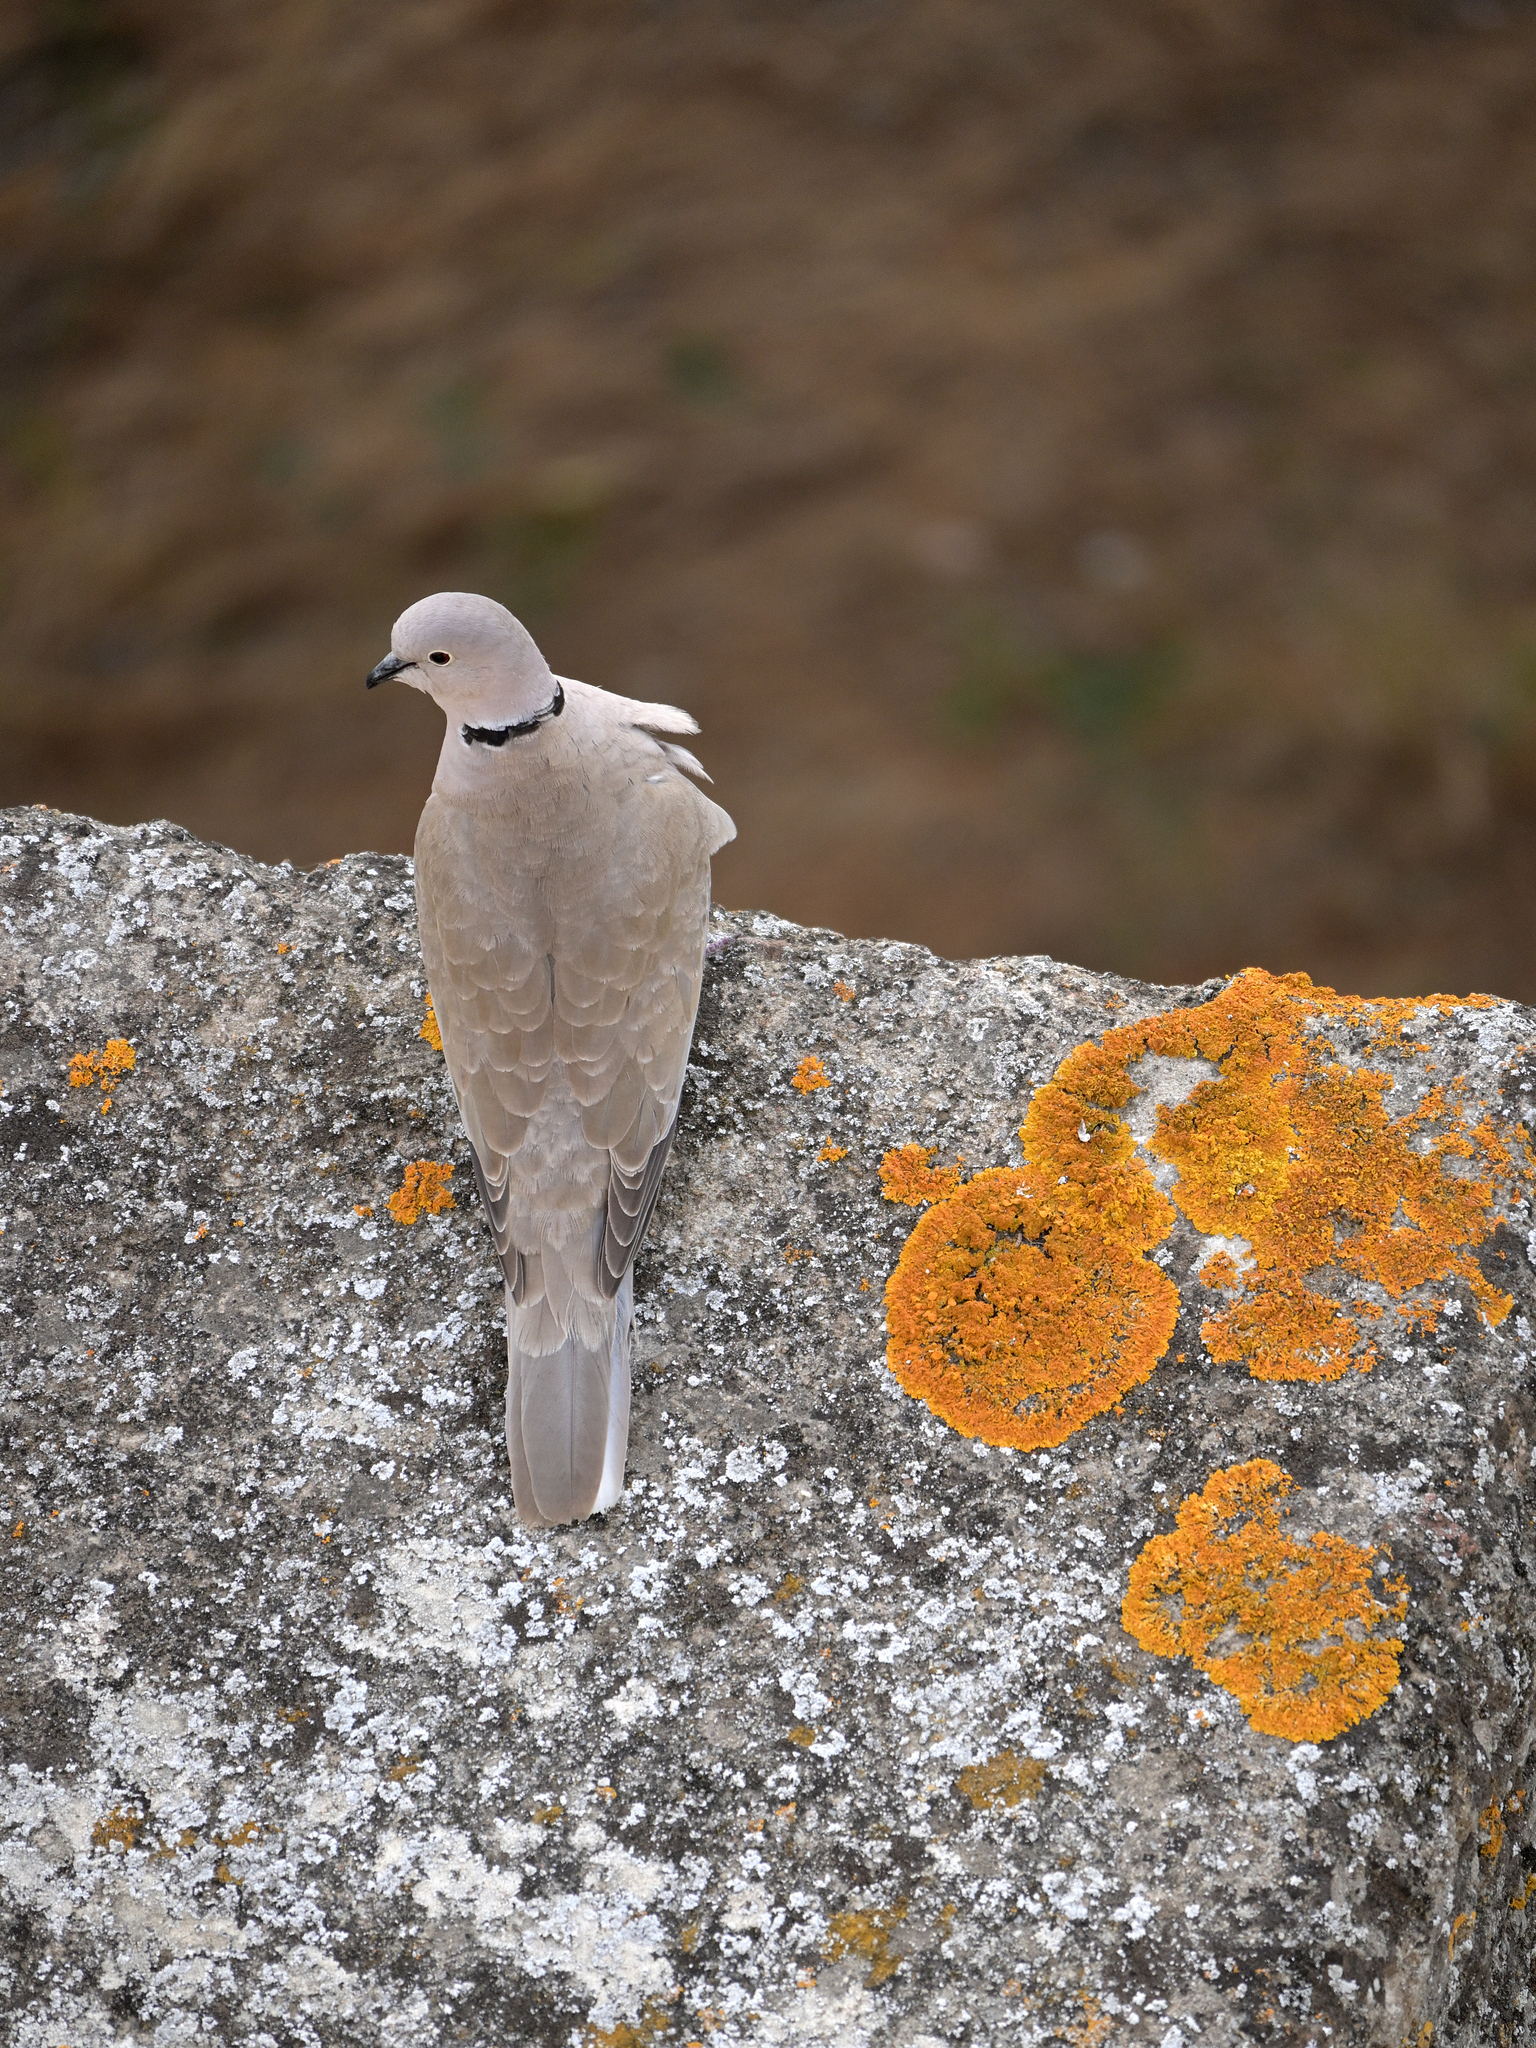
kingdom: Animalia
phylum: Chordata
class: Aves
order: Columbiformes
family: Columbidae
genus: Streptopelia
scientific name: Streptopelia decaocto
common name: Eurasian collared dove
